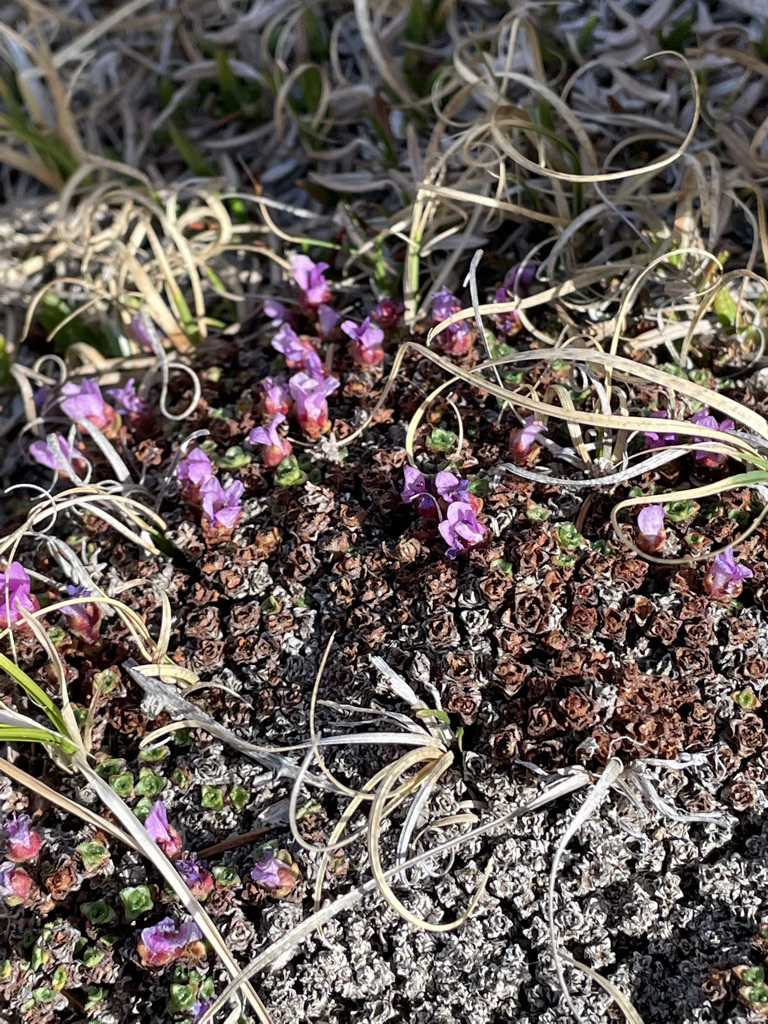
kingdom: Plantae
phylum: Tracheophyta
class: Magnoliopsida
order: Saxifragales
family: Saxifragaceae
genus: Saxifraga
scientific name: Saxifraga oppositifolia
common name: Purple saxifrage
